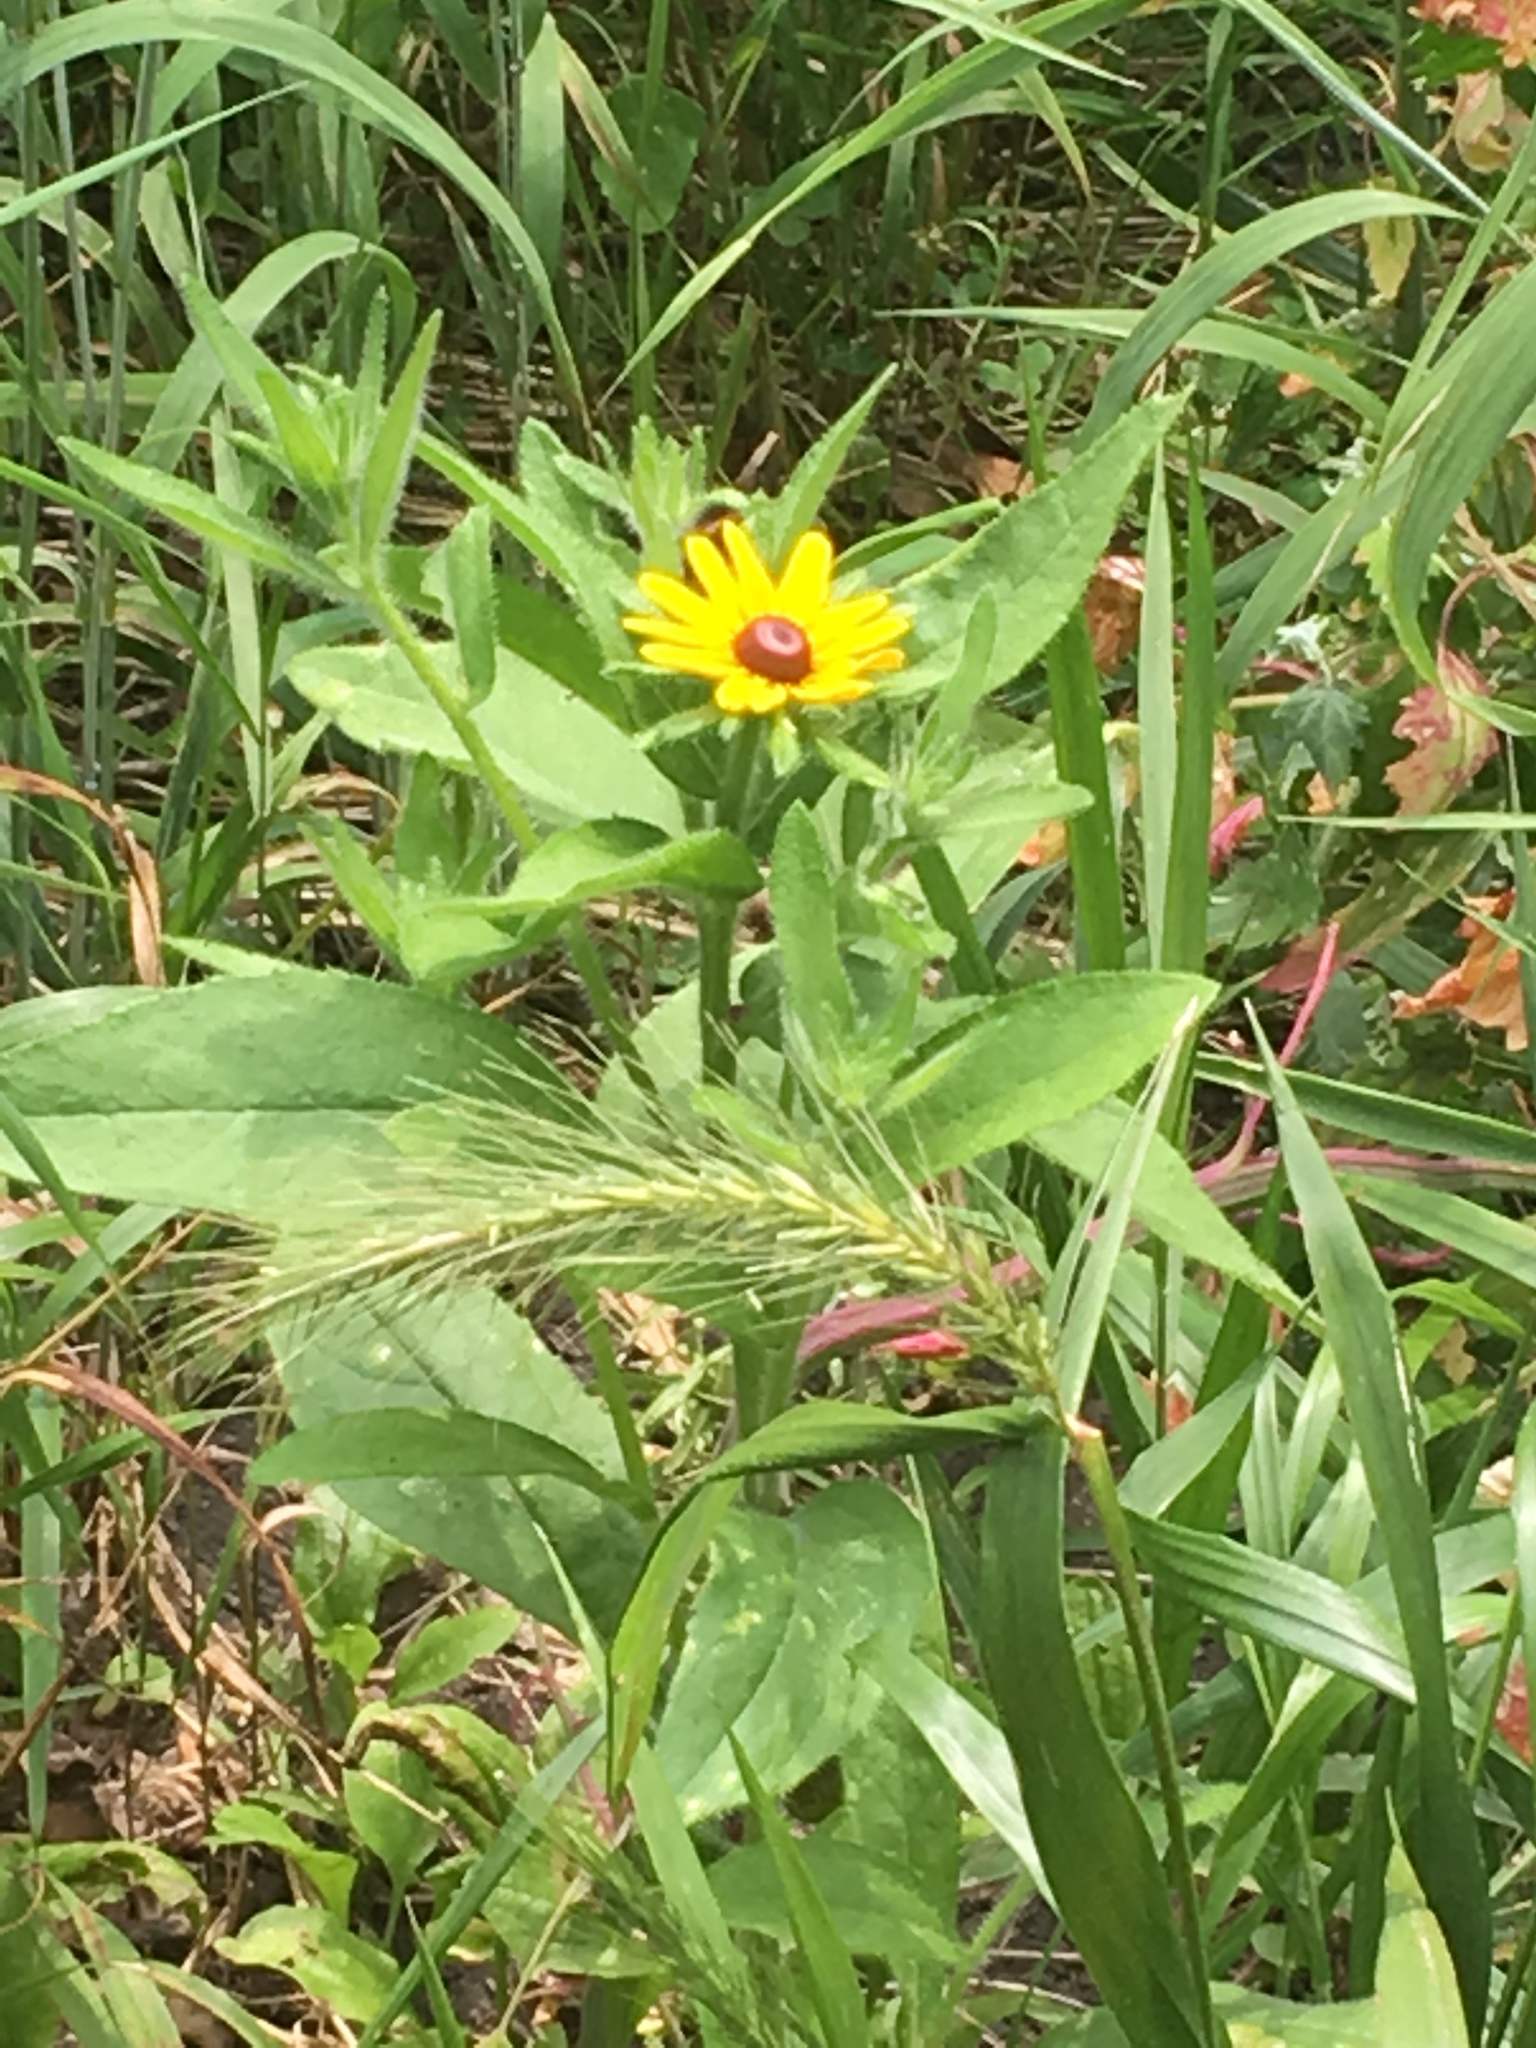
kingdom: Plantae
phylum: Tracheophyta
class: Magnoliopsida
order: Asterales
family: Asteraceae
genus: Rudbeckia
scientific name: Rudbeckia hirta
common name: Black-eyed-susan
